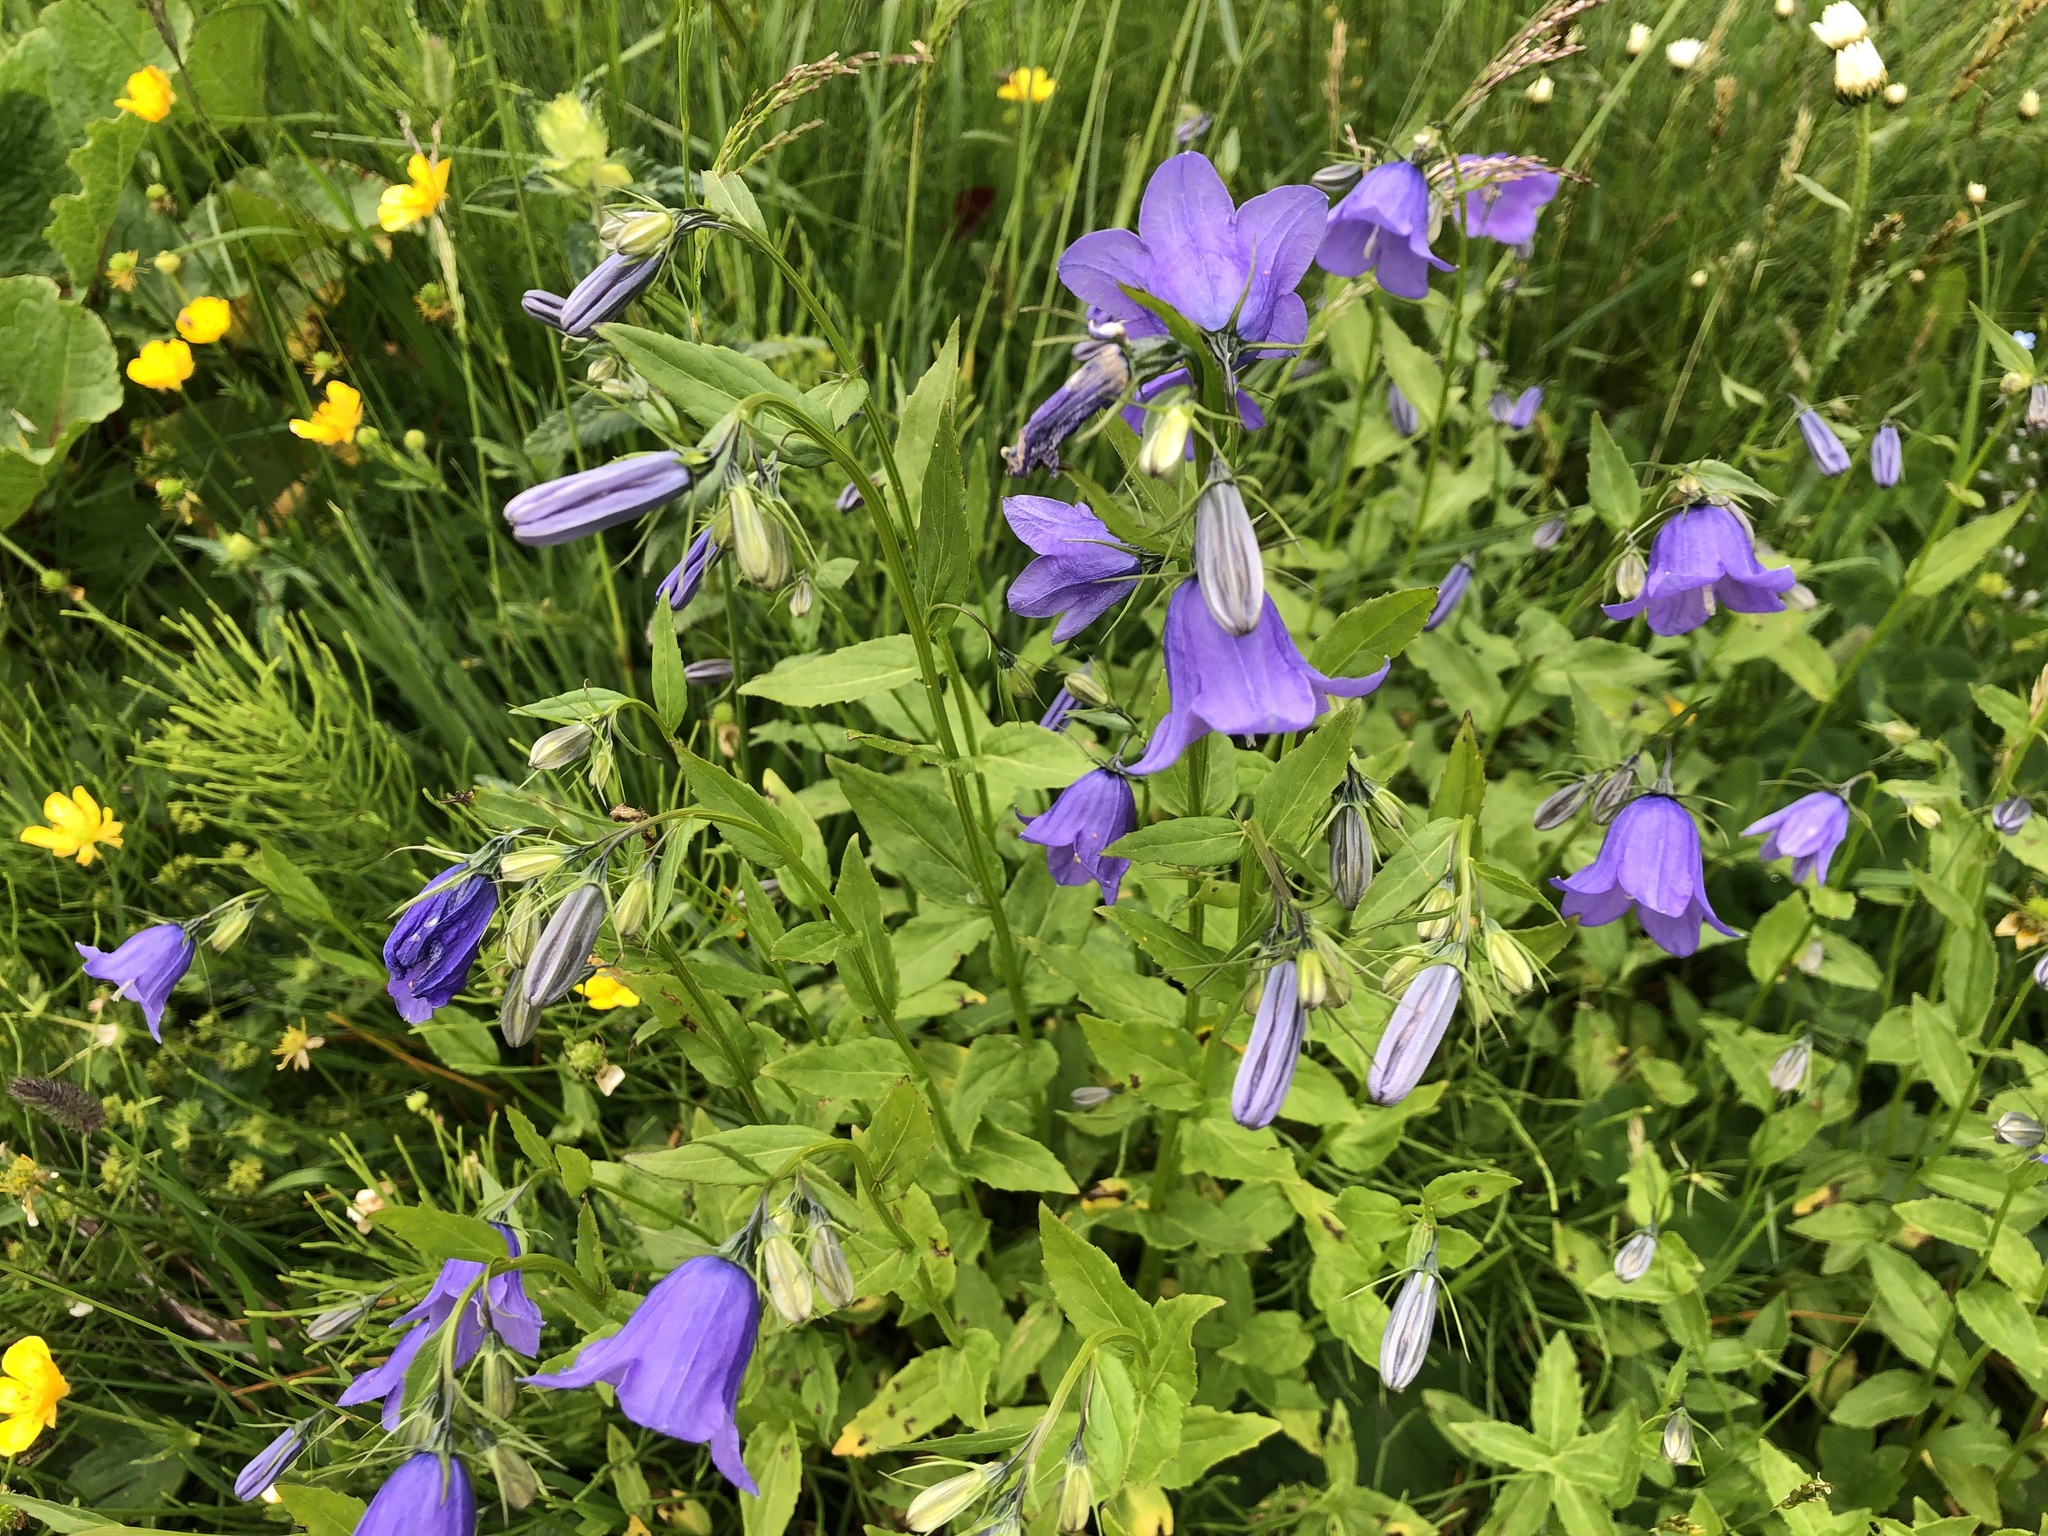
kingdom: Plantae
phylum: Tracheophyta
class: Magnoliopsida
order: Asterales
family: Campanulaceae
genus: Campanula
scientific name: Campanula rhomboidalis
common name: Broad-leaved harebell
